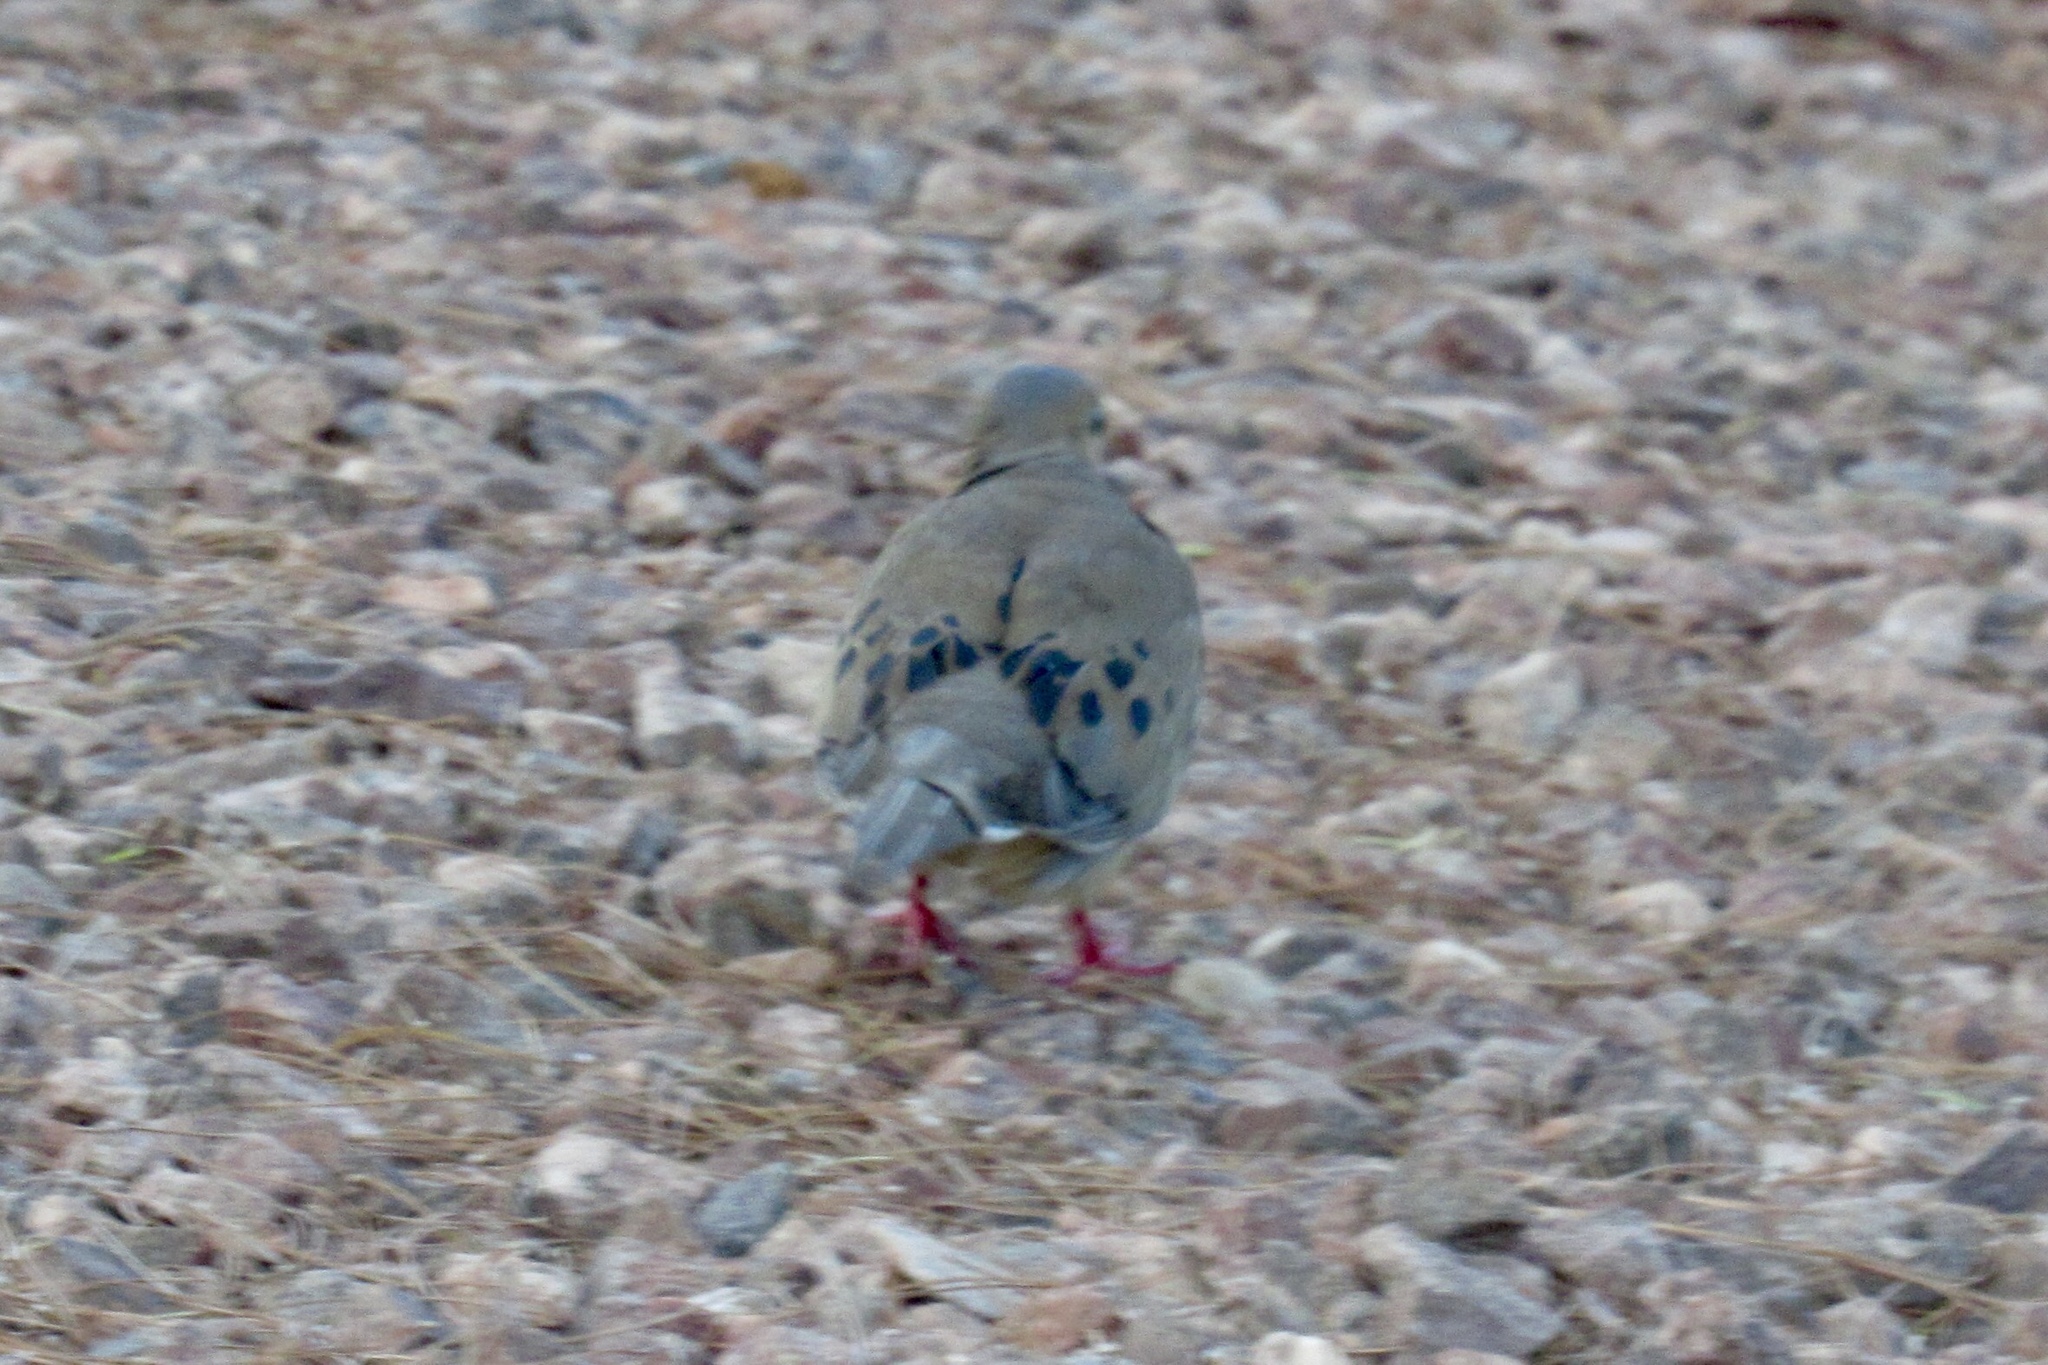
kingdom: Animalia
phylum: Chordata
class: Aves
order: Columbiformes
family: Columbidae
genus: Zenaida
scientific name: Zenaida macroura
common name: Mourning dove
